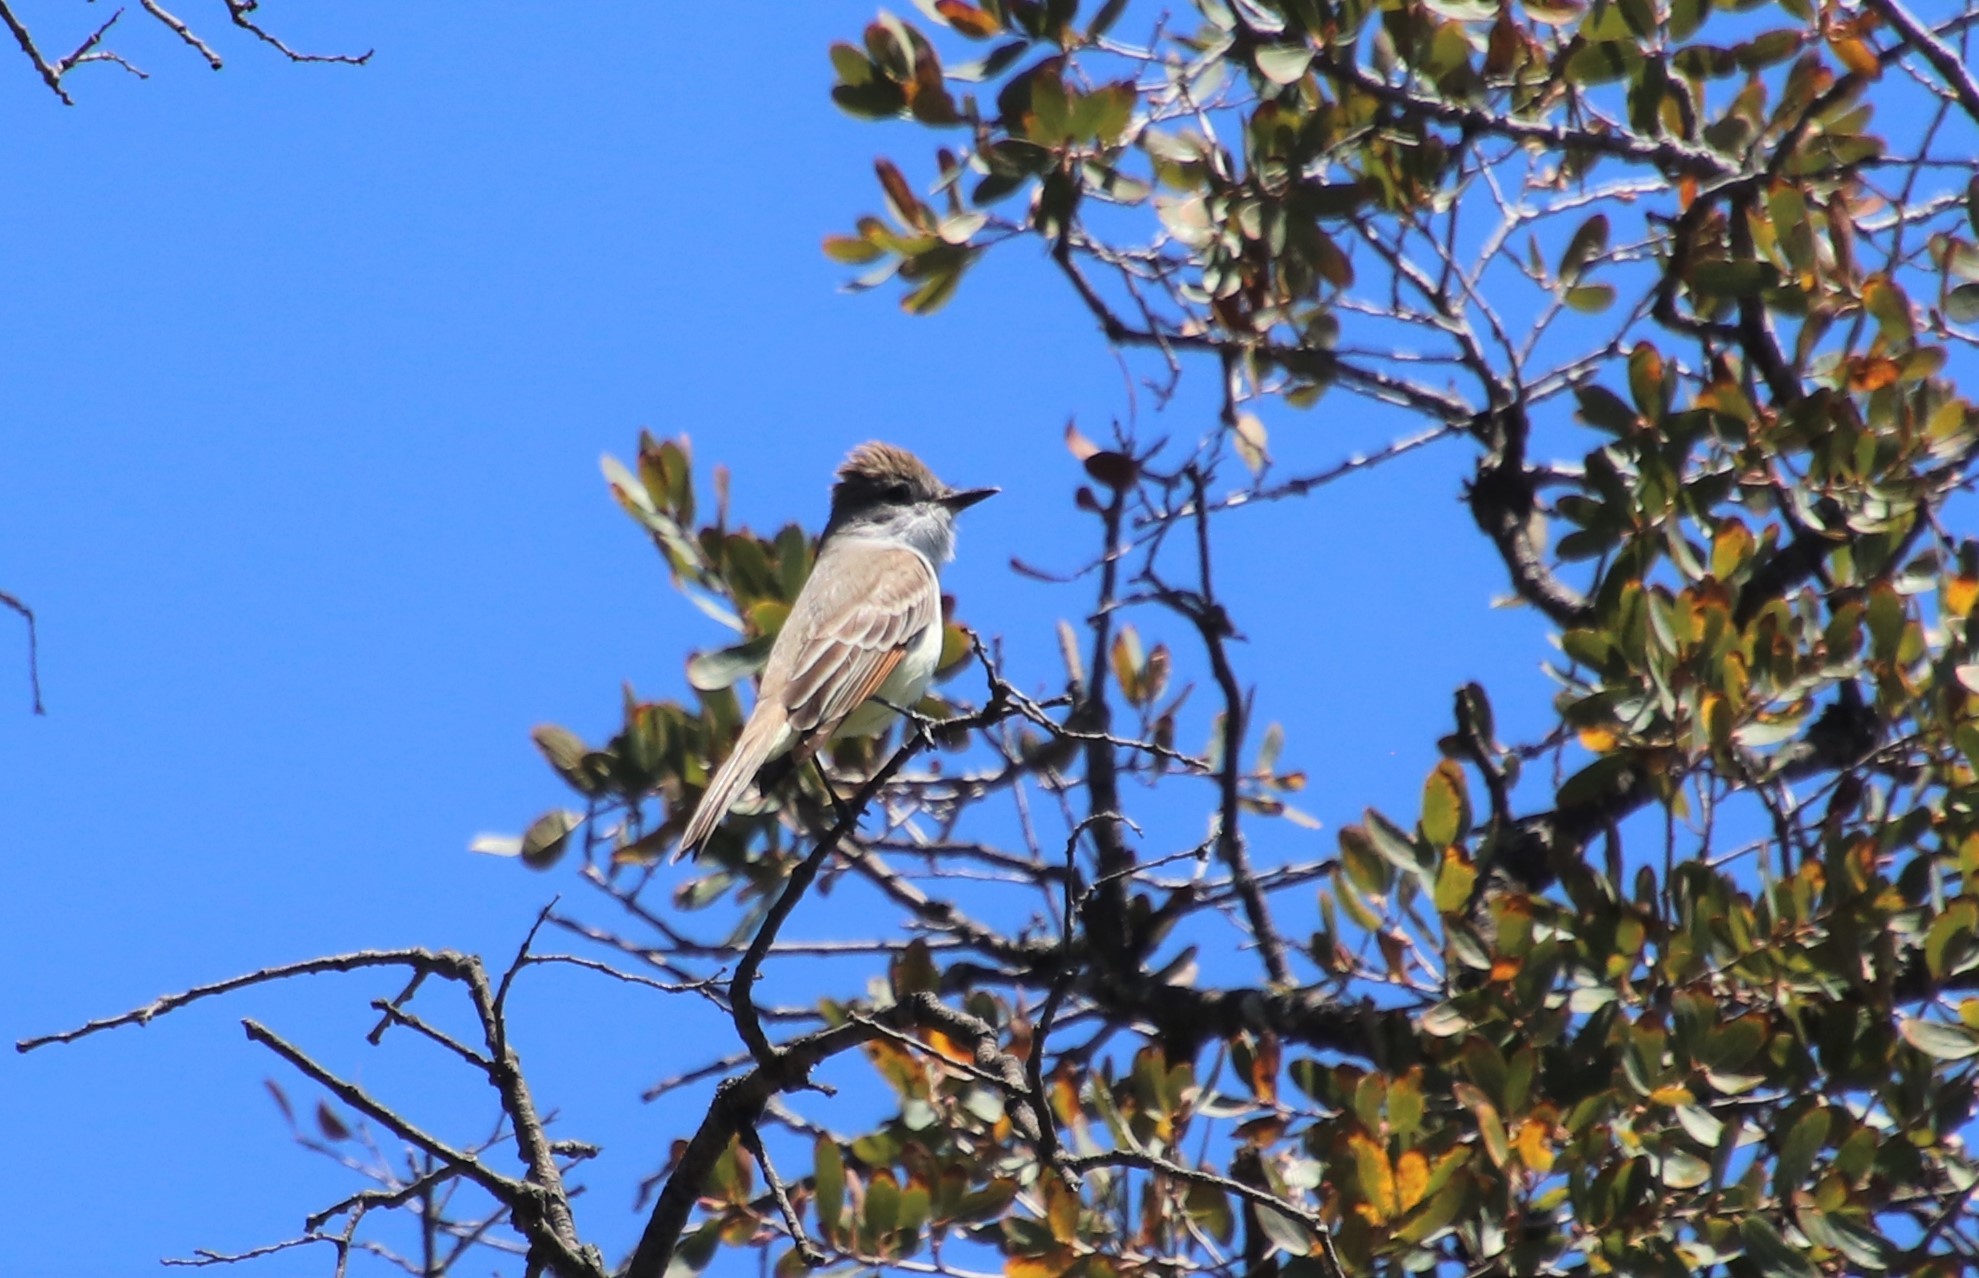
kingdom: Animalia
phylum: Chordata
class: Aves
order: Passeriformes
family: Tyrannidae
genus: Myiarchus
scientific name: Myiarchus cinerascens
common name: Ash-throated flycatcher
